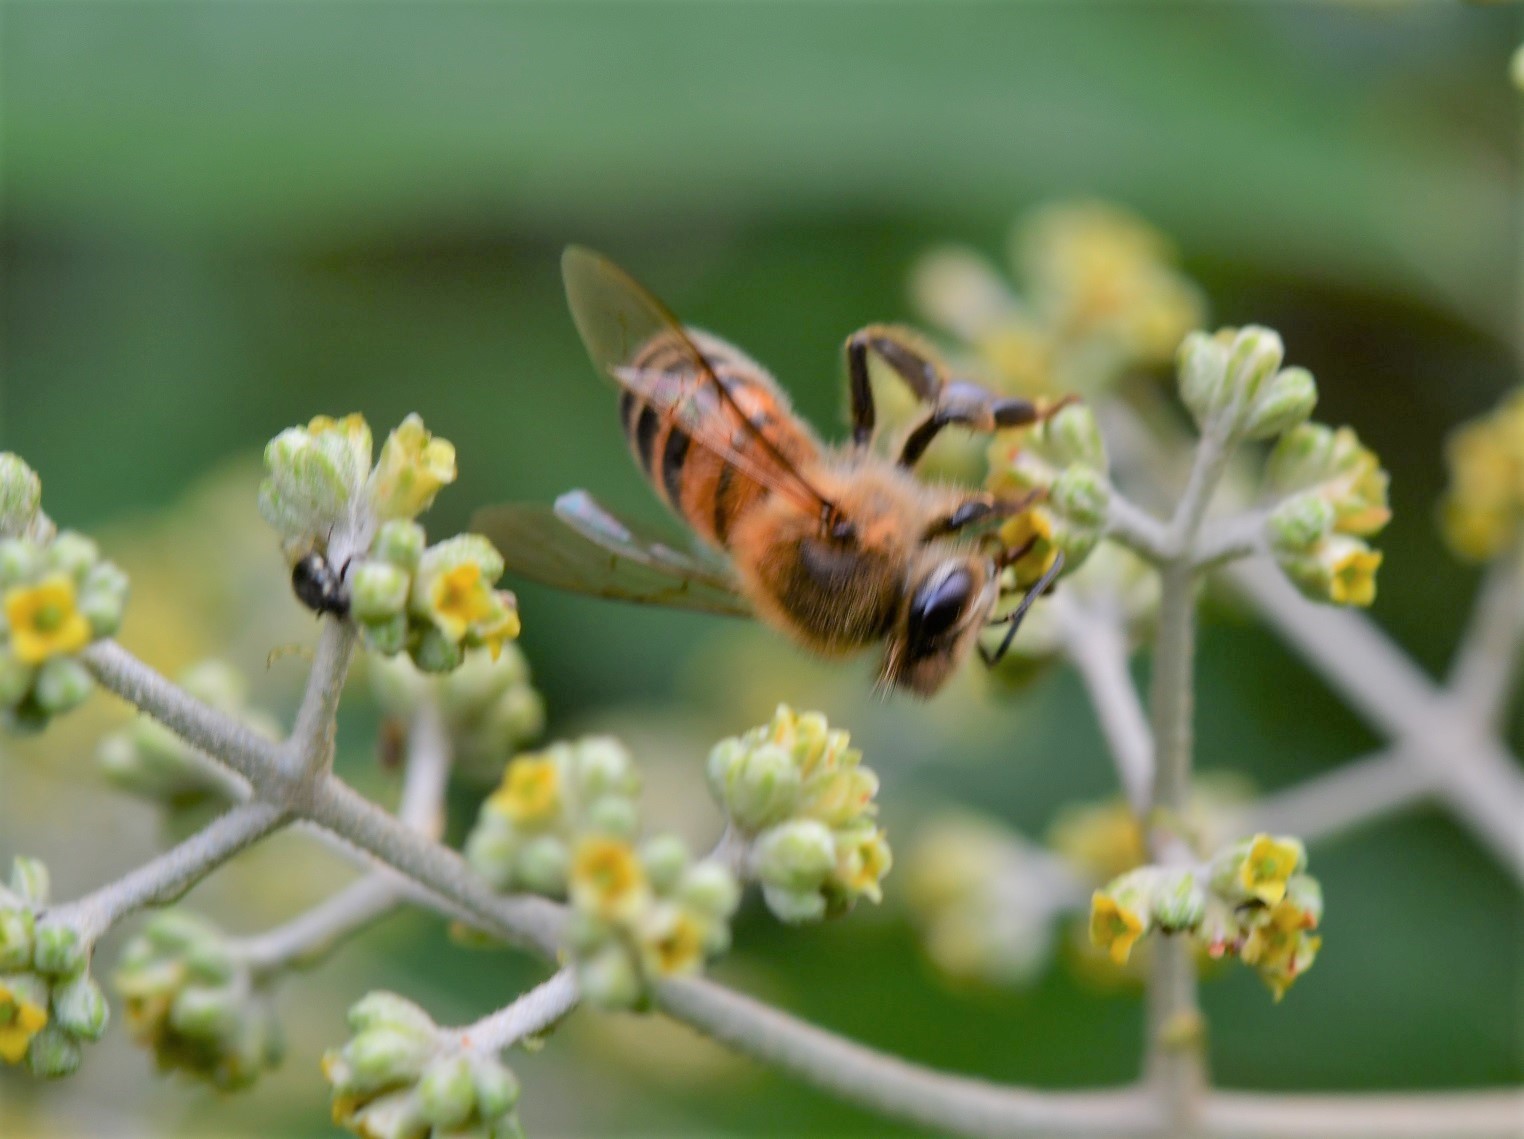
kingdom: Animalia
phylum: Arthropoda
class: Insecta
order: Hymenoptera
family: Apidae
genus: Apis
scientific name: Apis mellifera
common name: Honey bee
